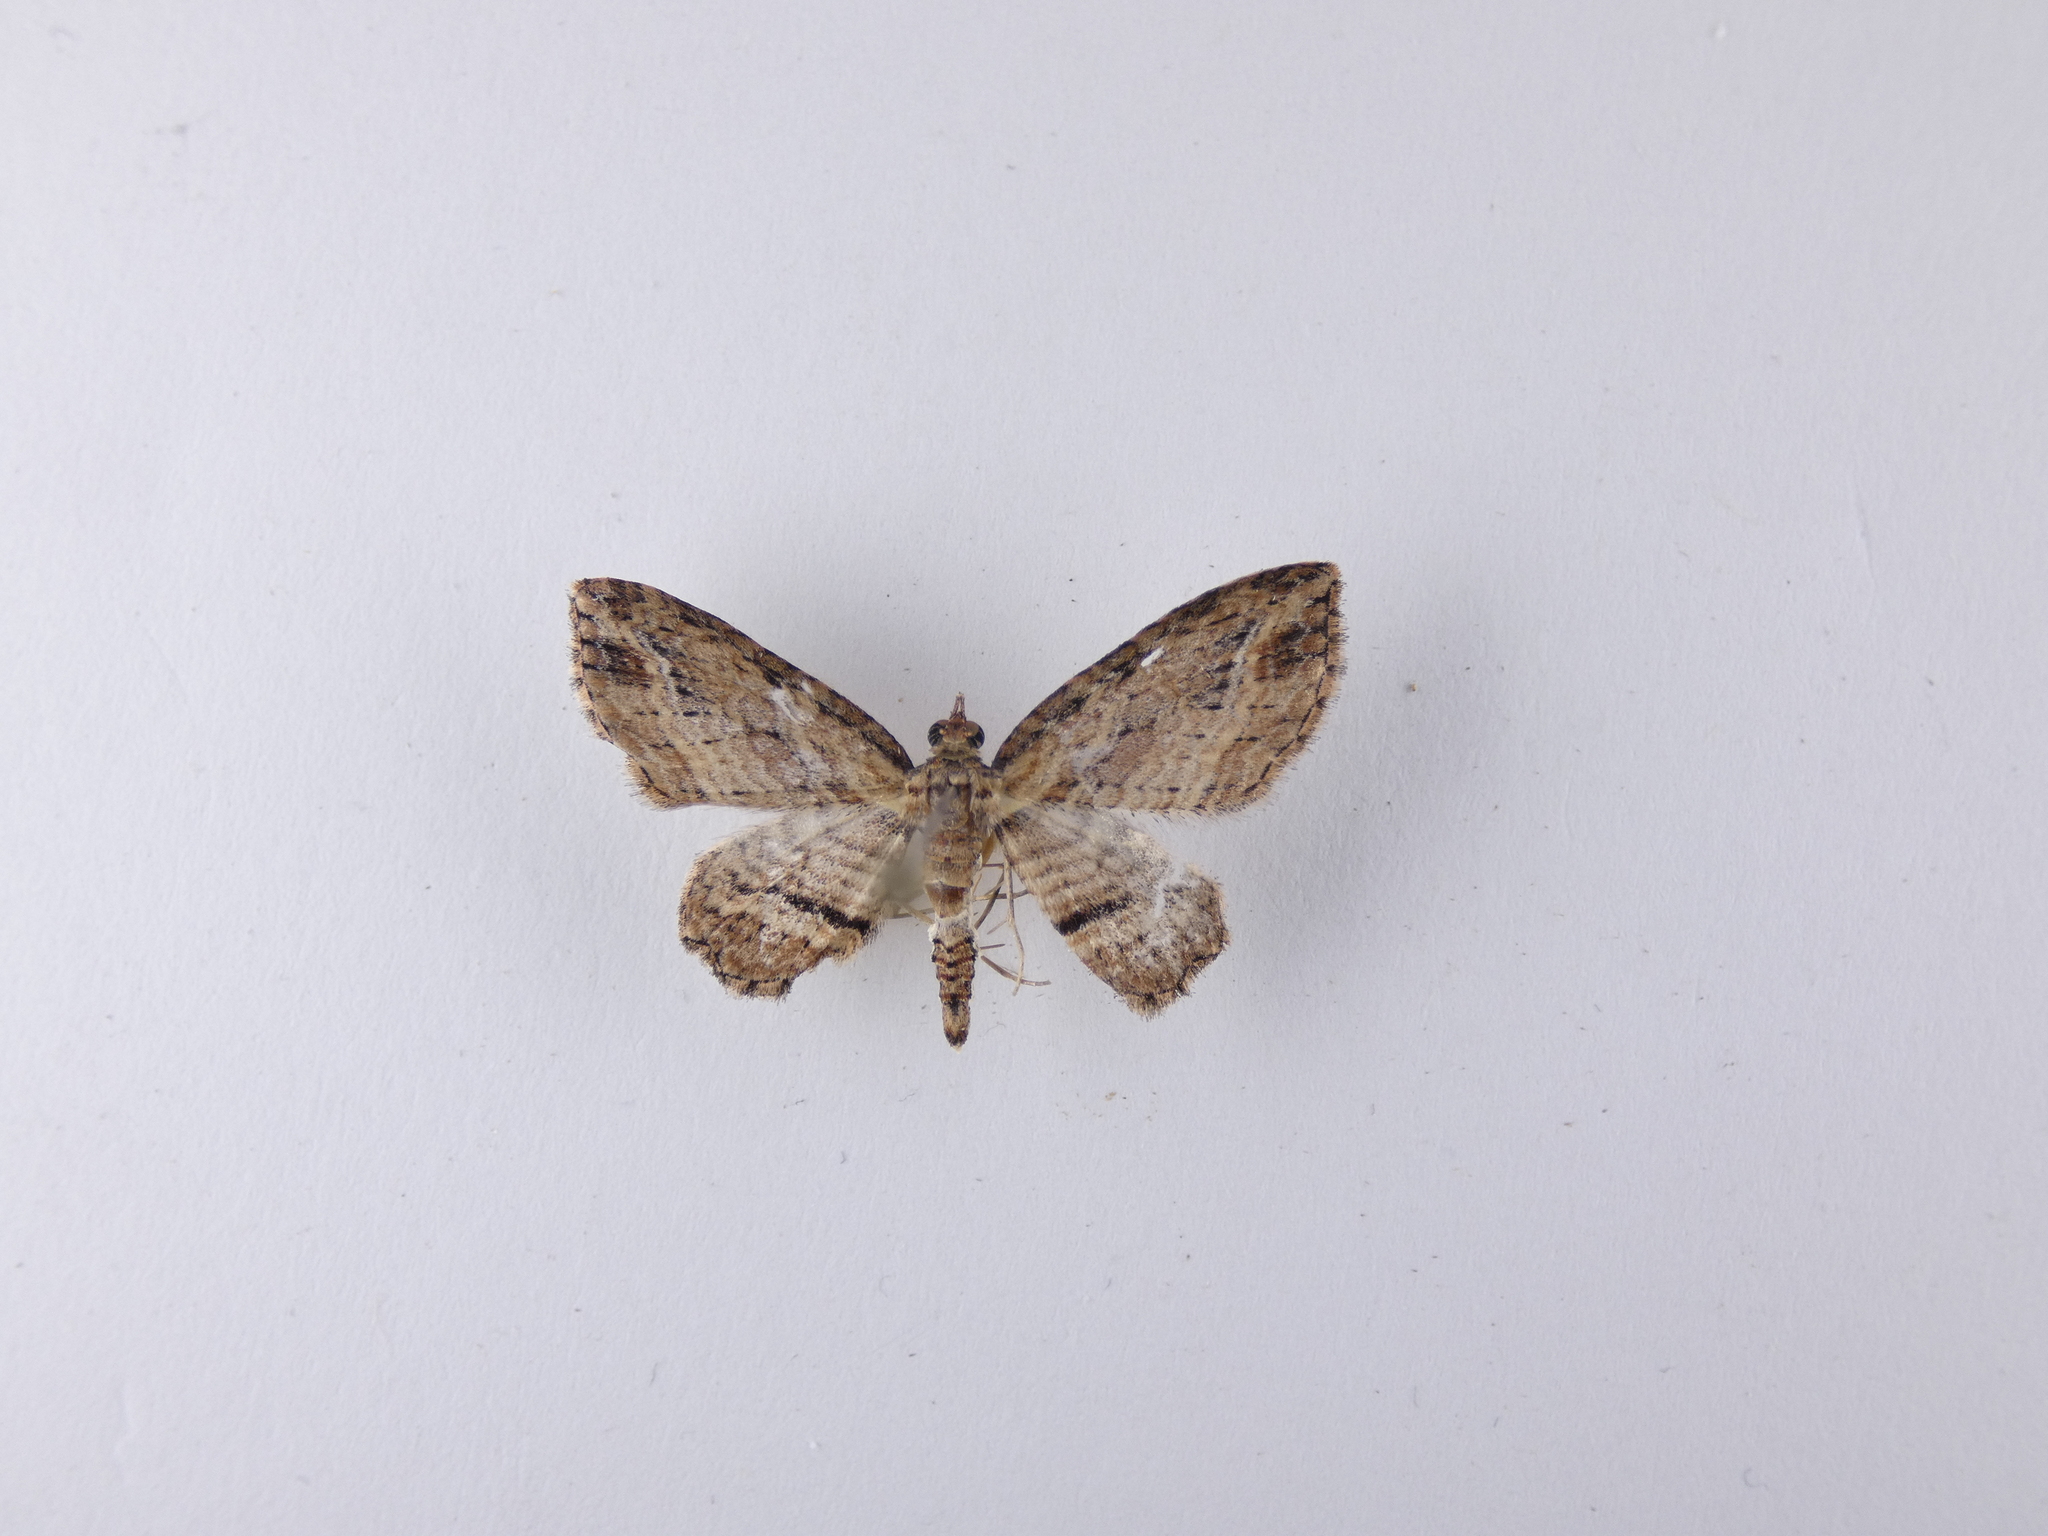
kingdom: Animalia
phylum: Arthropoda
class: Insecta
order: Lepidoptera
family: Geometridae
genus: Chloroclystis
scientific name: Chloroclystis filata
